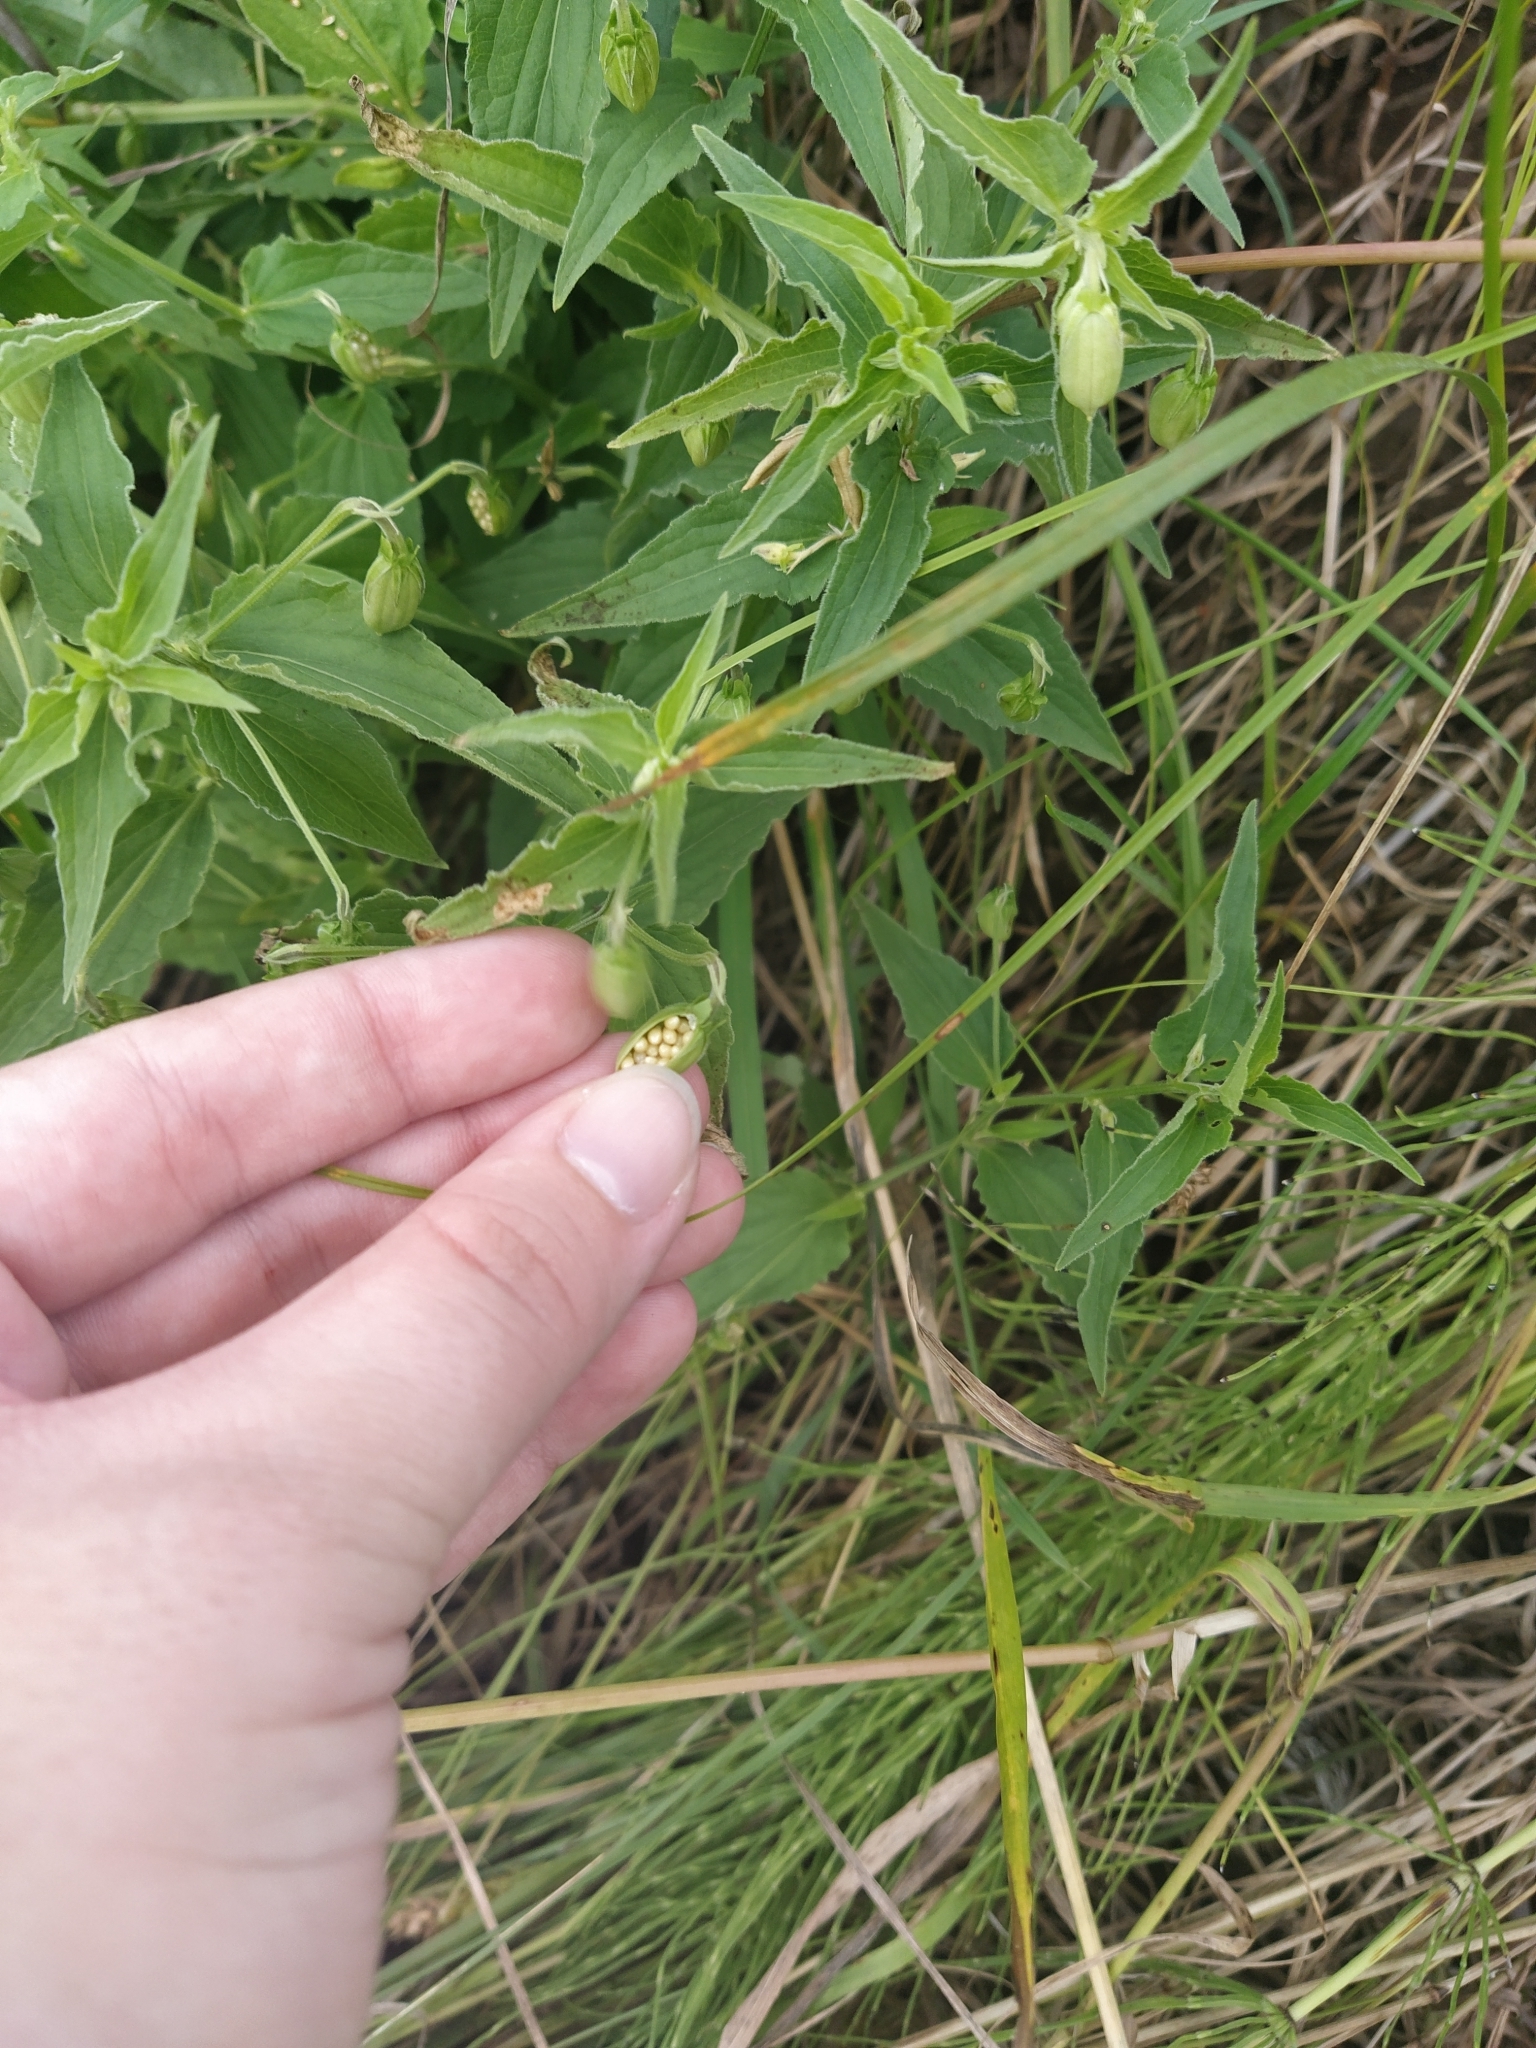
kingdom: Plantae
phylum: Tracheophyta
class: Magnoliopsida
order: Malpighiales
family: Violaceae
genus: Viola
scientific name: Viola elatior
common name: Tall violet
